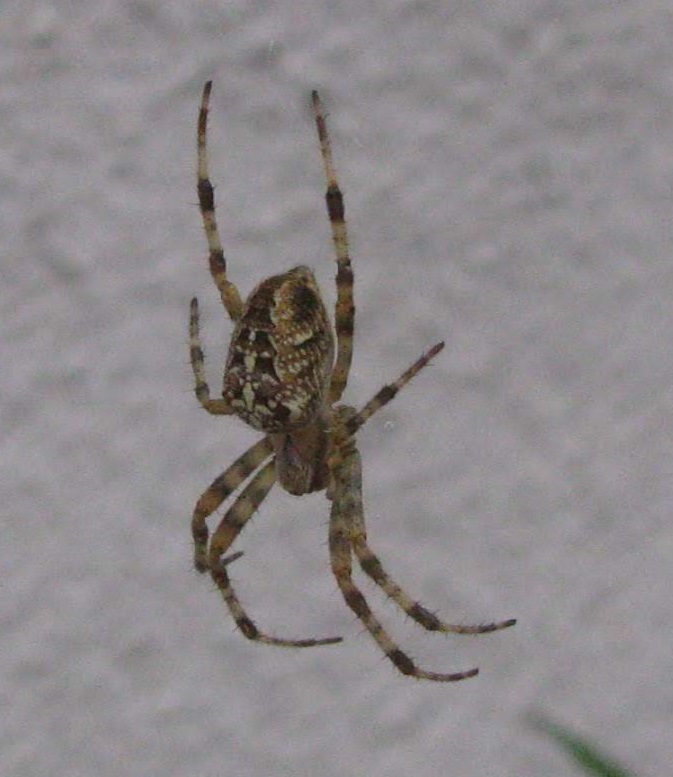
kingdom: Animalia
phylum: Arthropoda
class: Arachnida
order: Araneae
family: Araneidae
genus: Araneus
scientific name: Araneus diadematus
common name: Cross orbweaver
